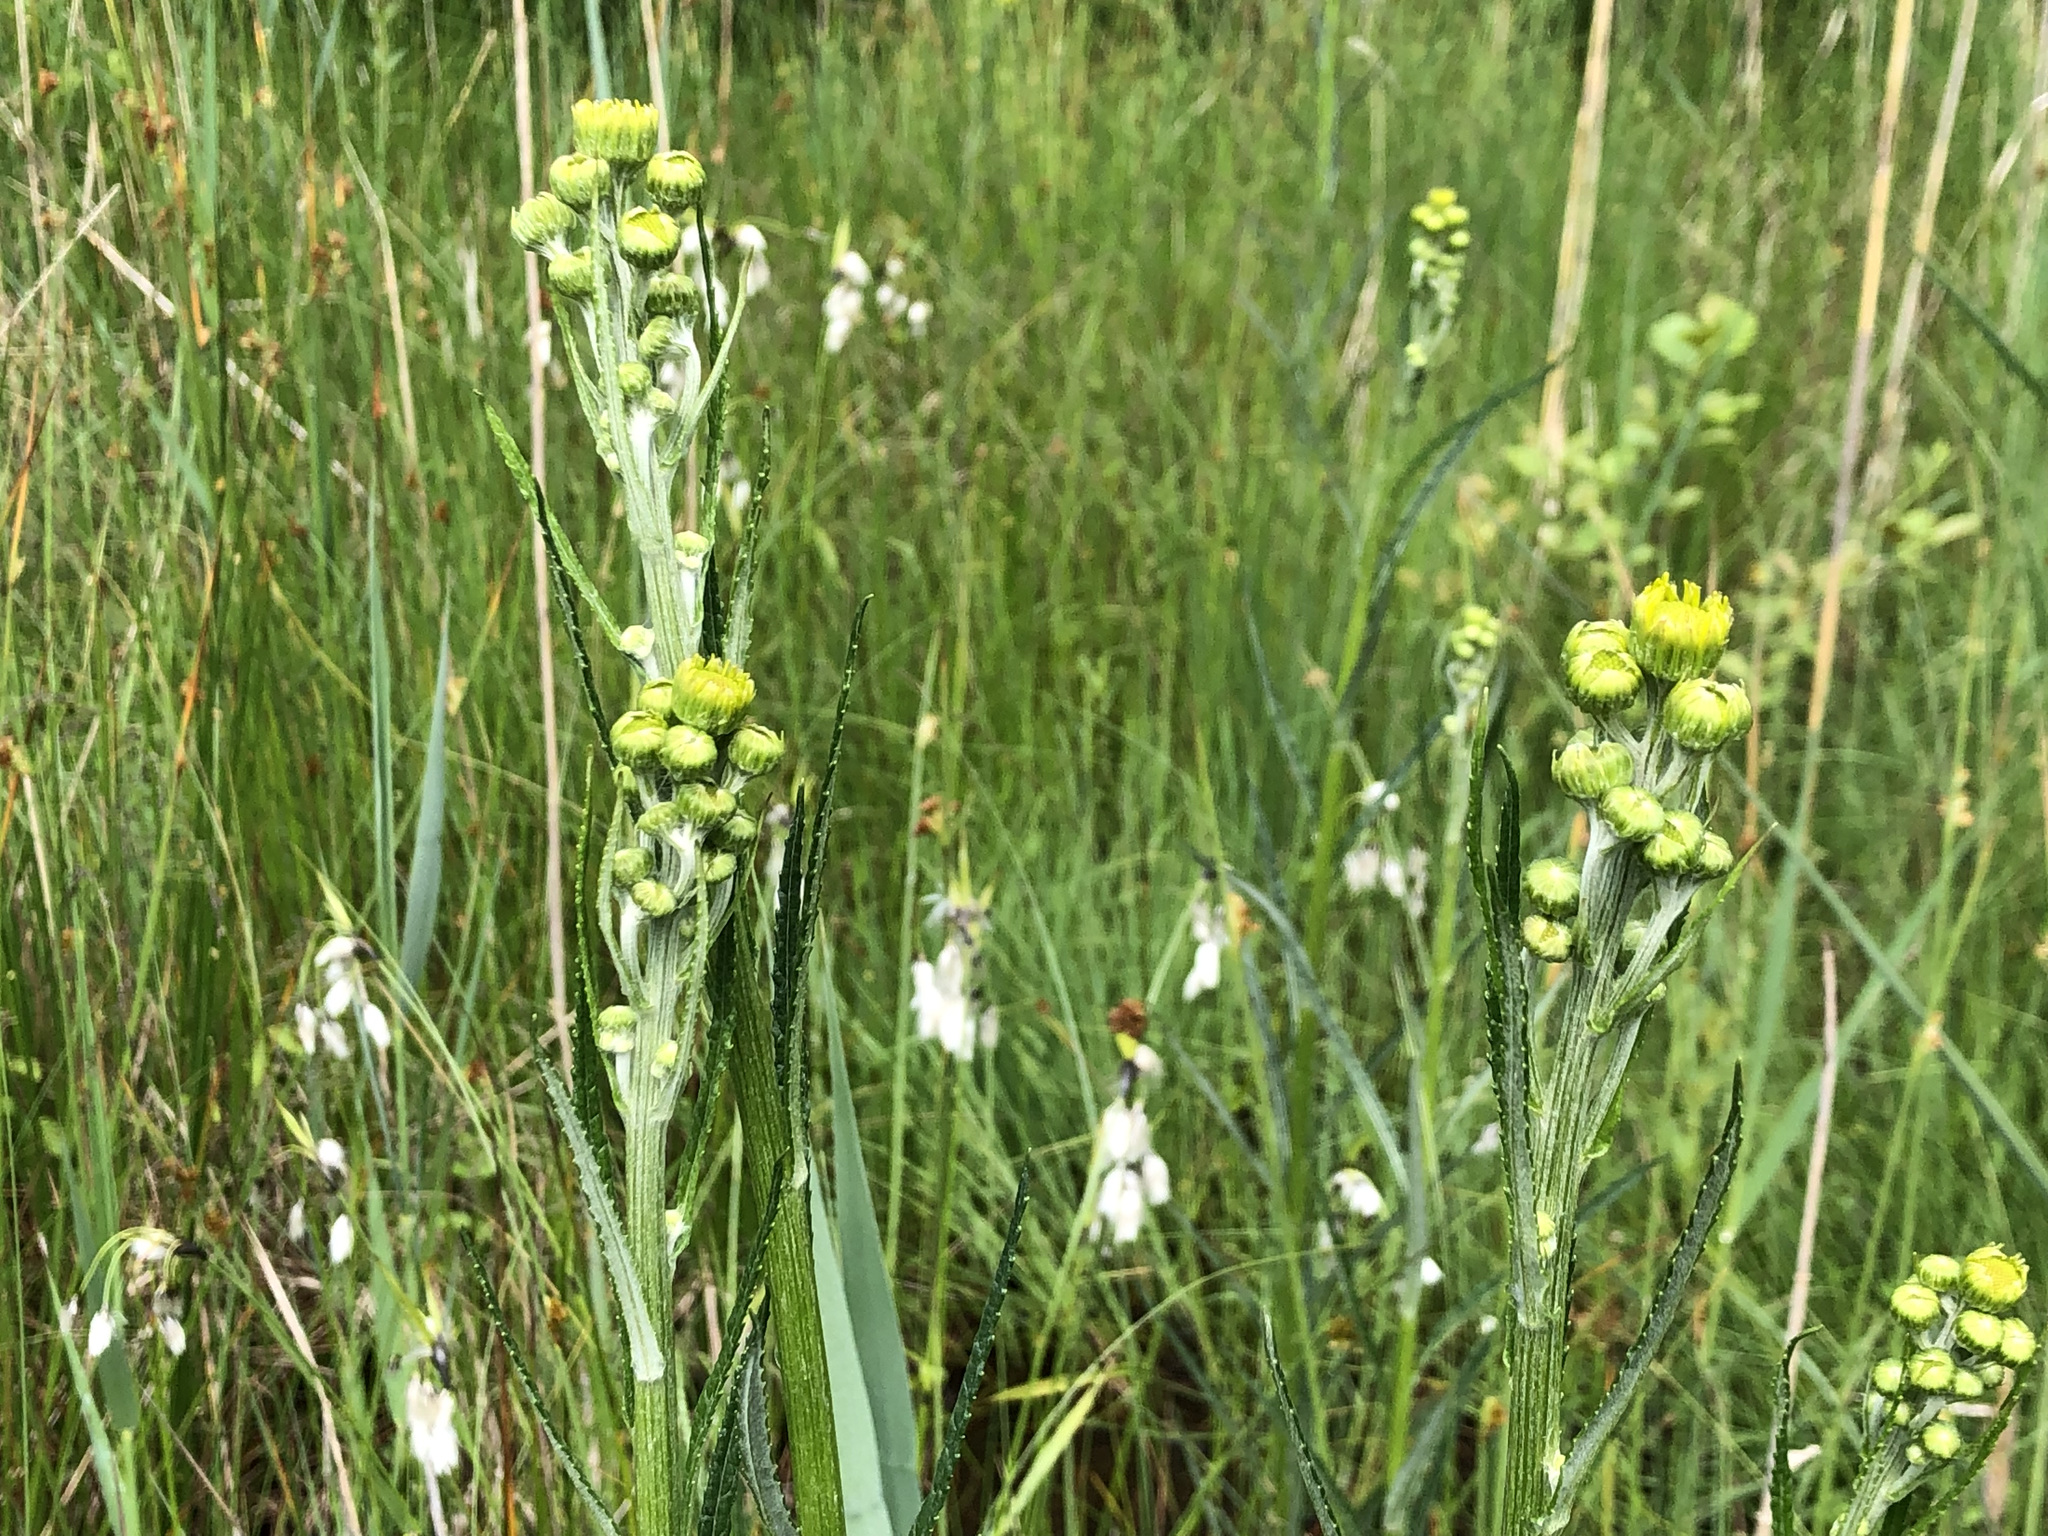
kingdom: Plantae
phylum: Tracheophyta
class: Magnoliopsida
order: Asterales
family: Asteraceae
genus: Jacobaea
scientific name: Jacobaea paludosa
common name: Fen ragwort
